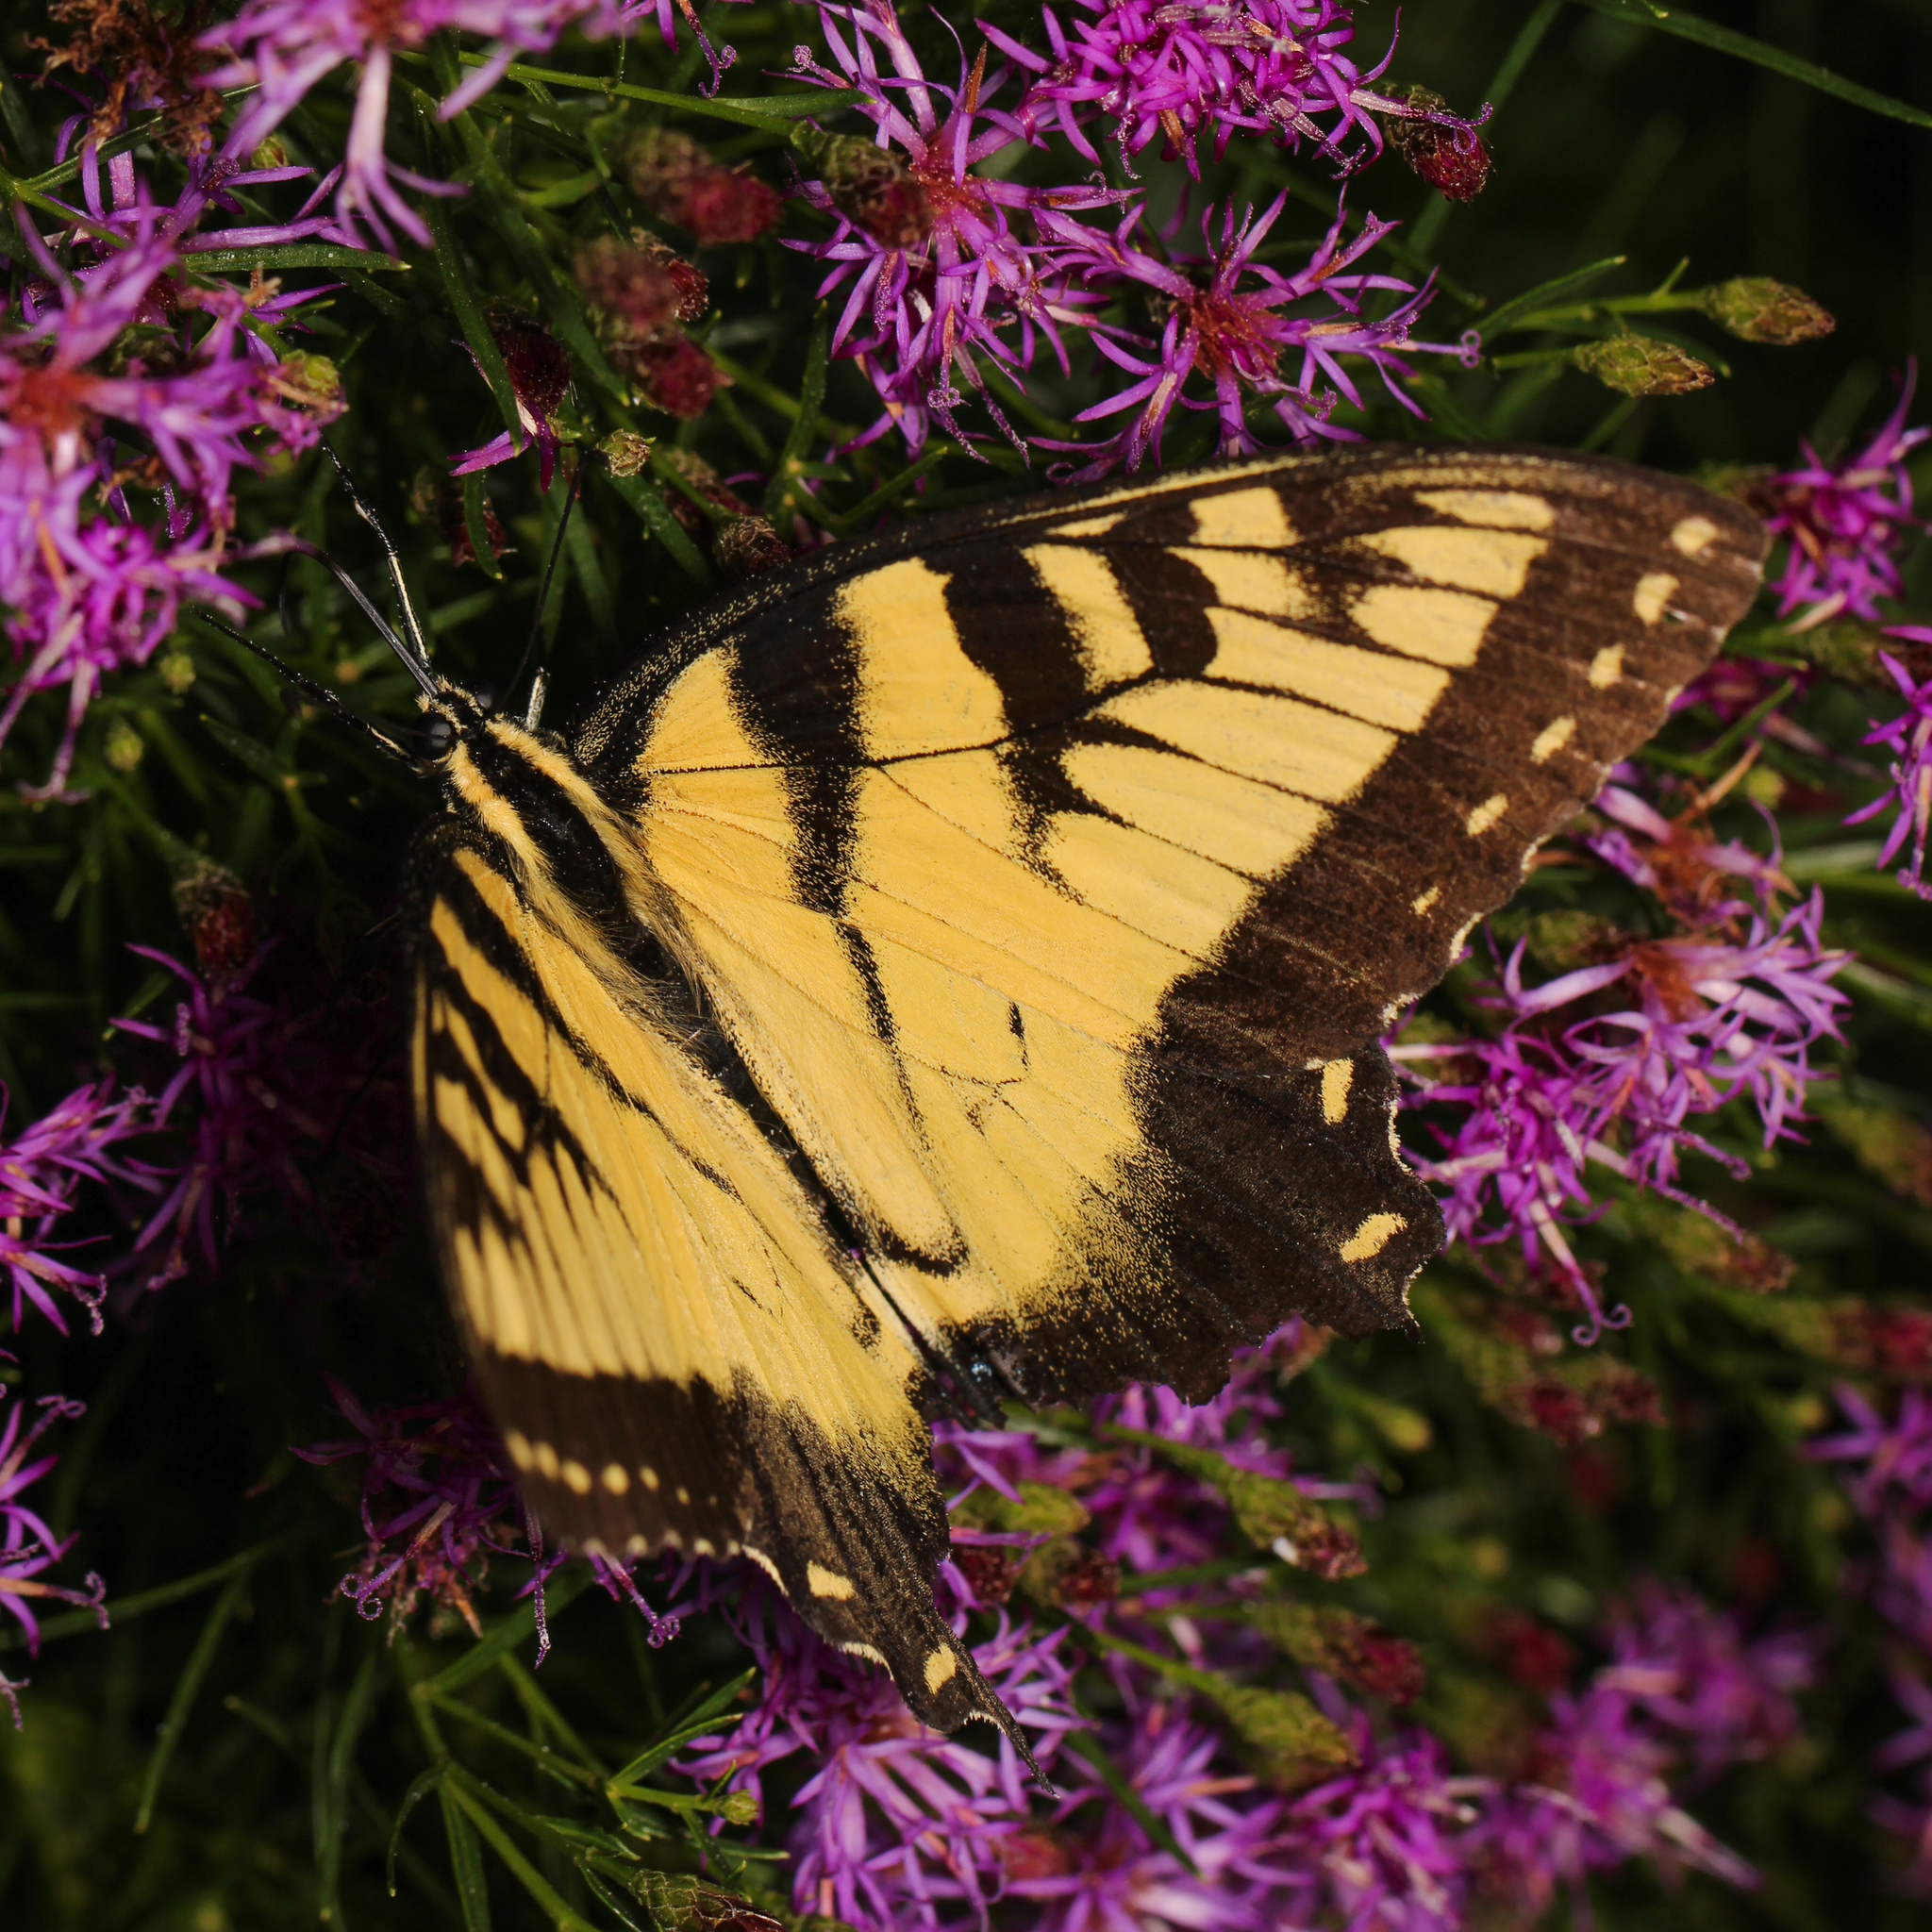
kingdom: Animalia
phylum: Arthropoda
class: Insecta
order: Lepidoptera
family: Papilionidae
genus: Papilio
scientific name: Papilio glaucus
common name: Tiger swallowtail
